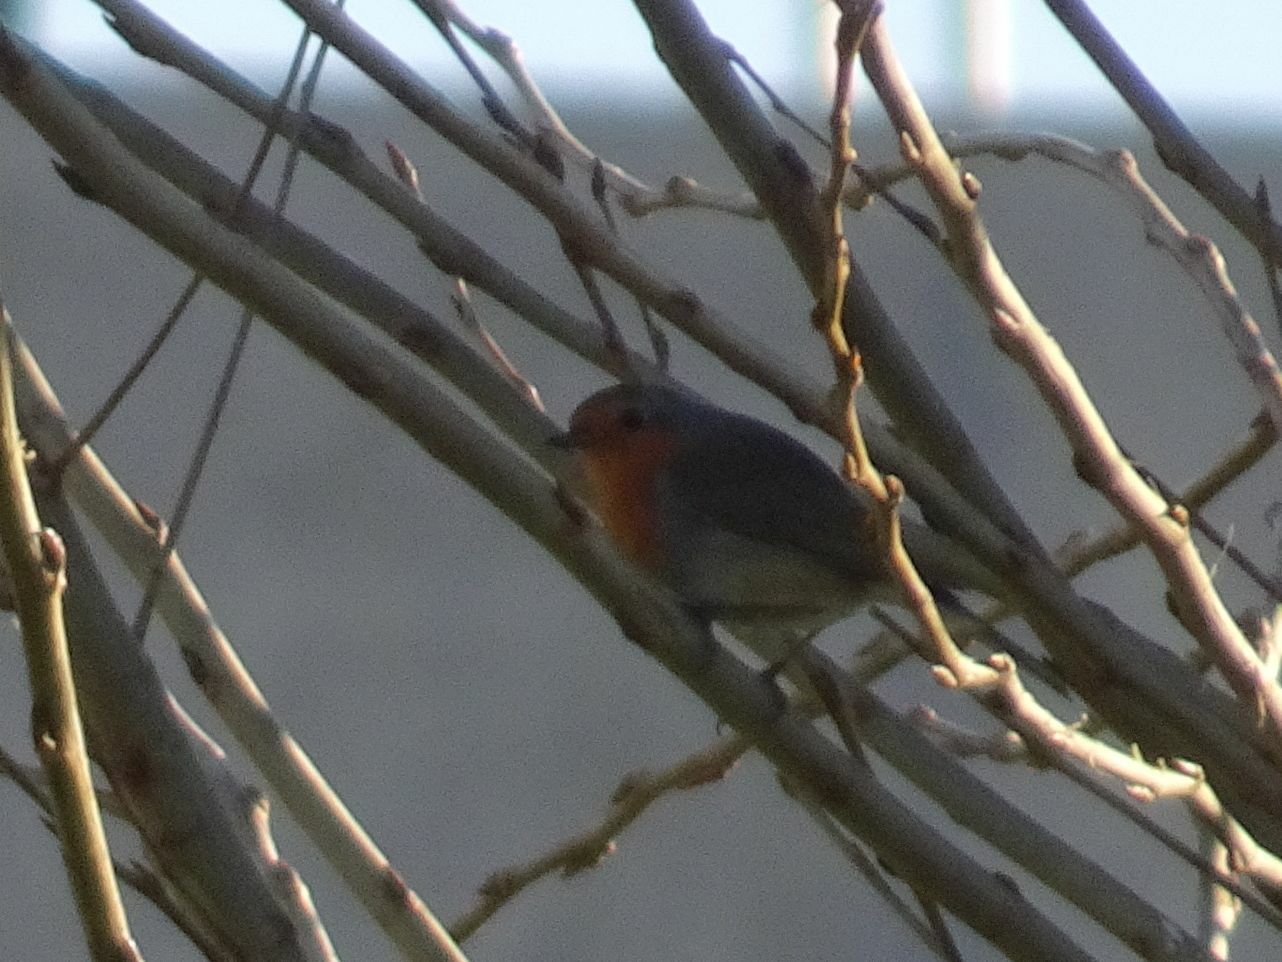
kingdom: Animalia
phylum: Chordata
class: Aves
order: Passeriformes
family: Muscicapidae
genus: Erithacus
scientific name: Erithacus rubecula
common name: European robin
